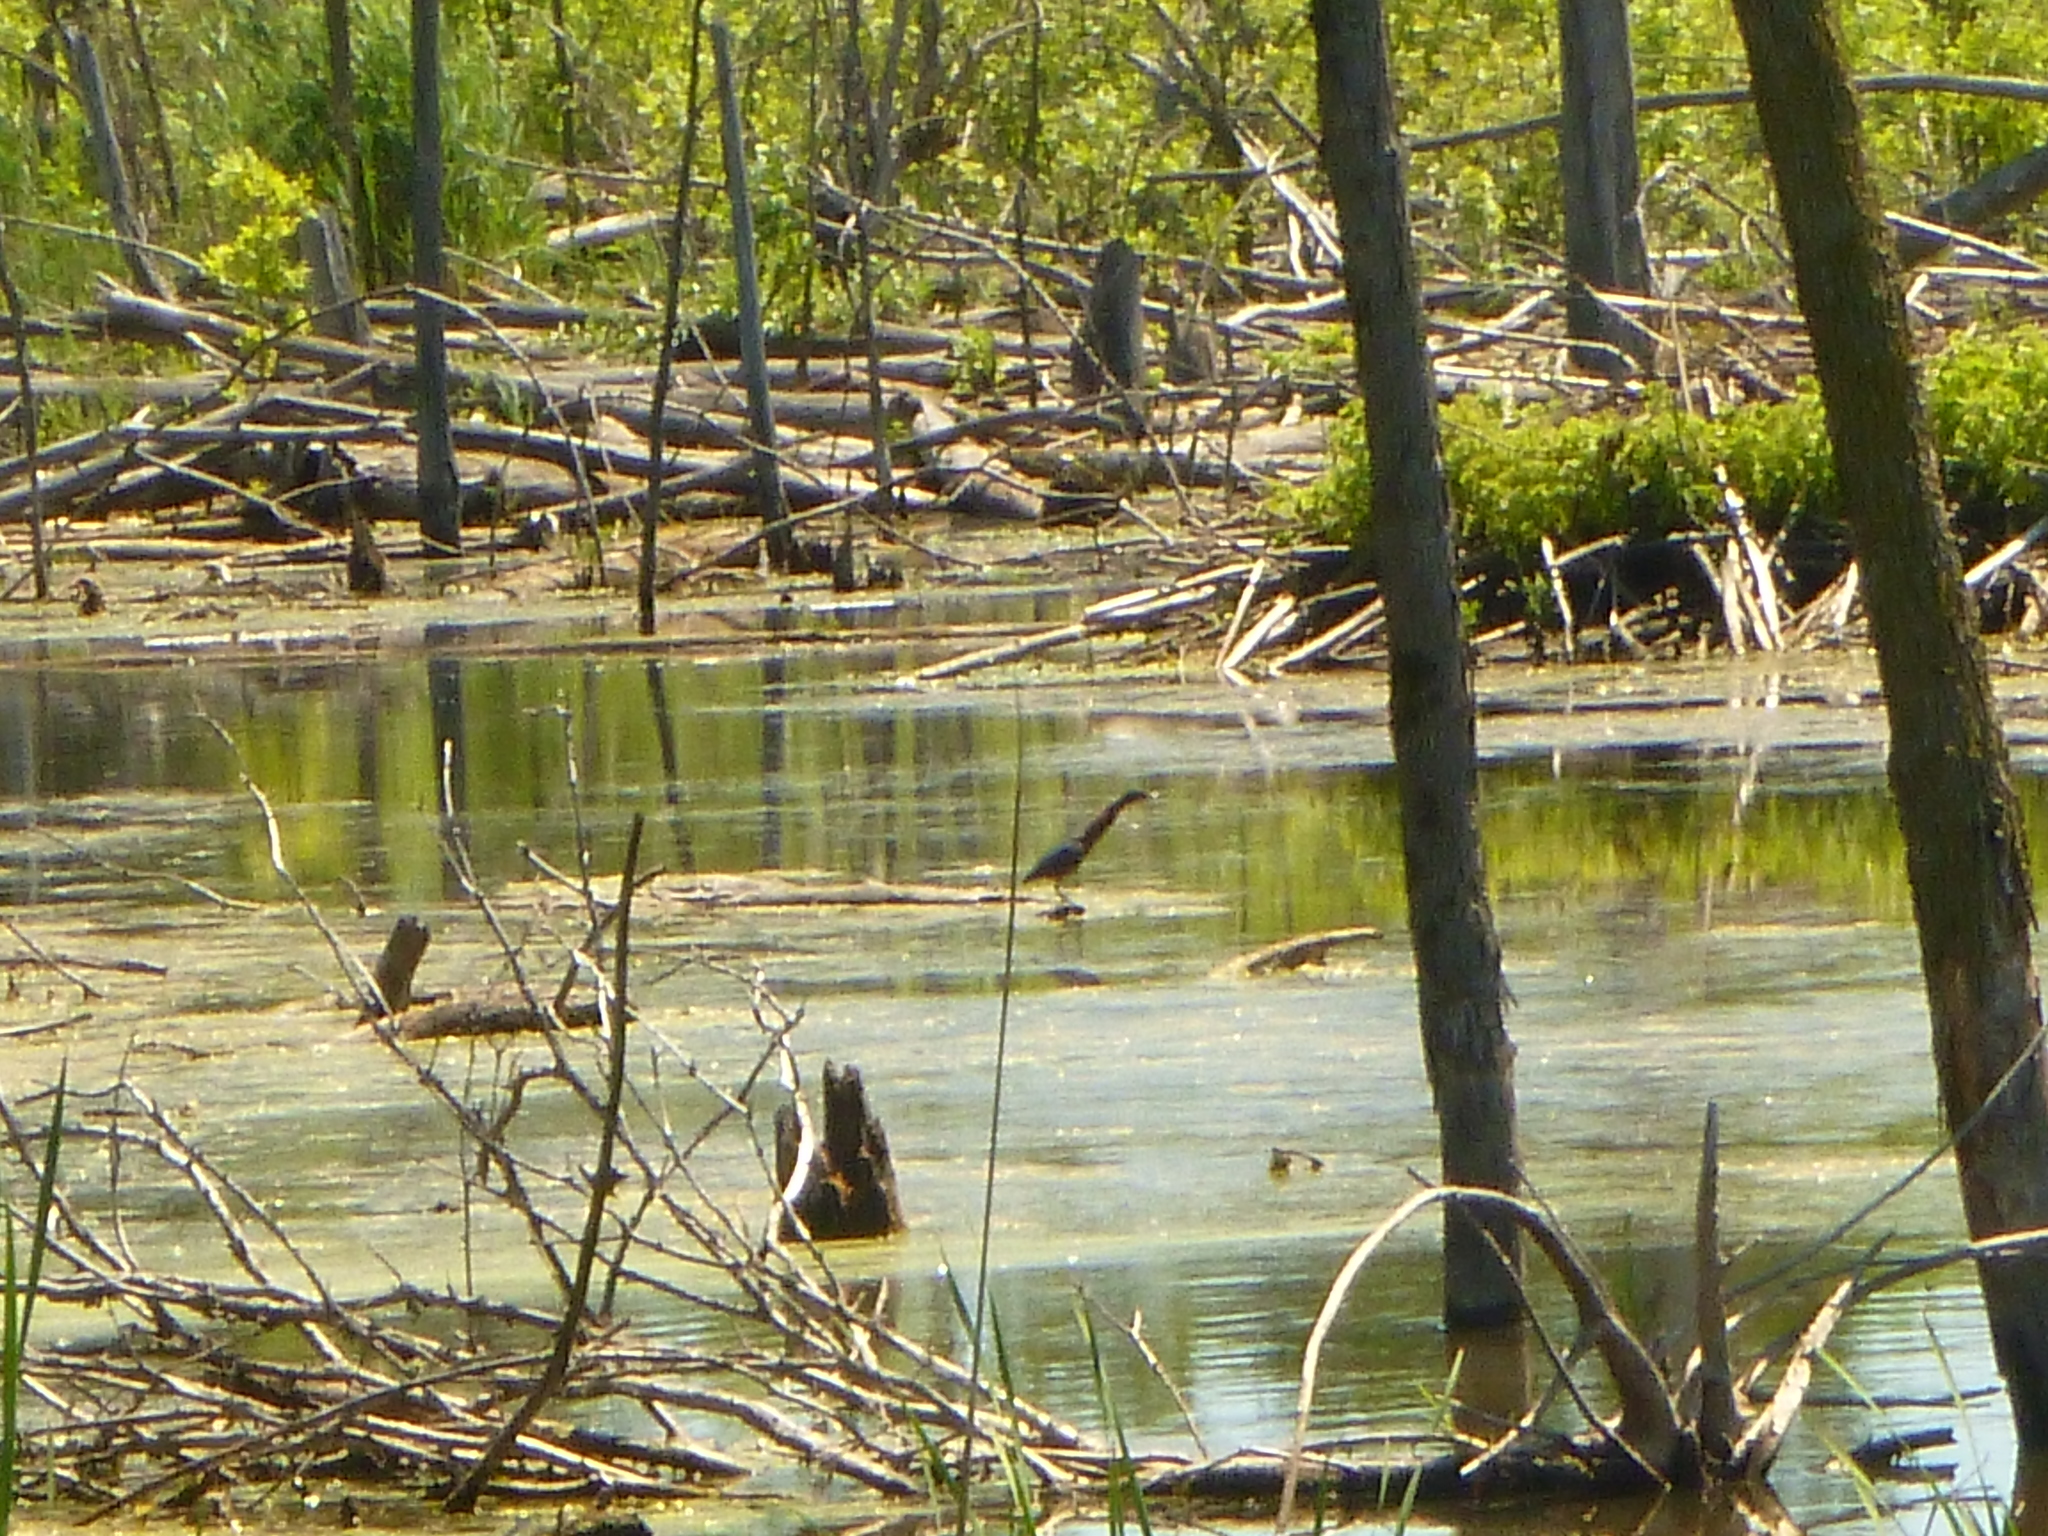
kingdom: Animalia
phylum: Chordata
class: Aves
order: Pelecaniformes
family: Ardeidae
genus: Butorides
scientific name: Butorides virescens
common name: Green heron
